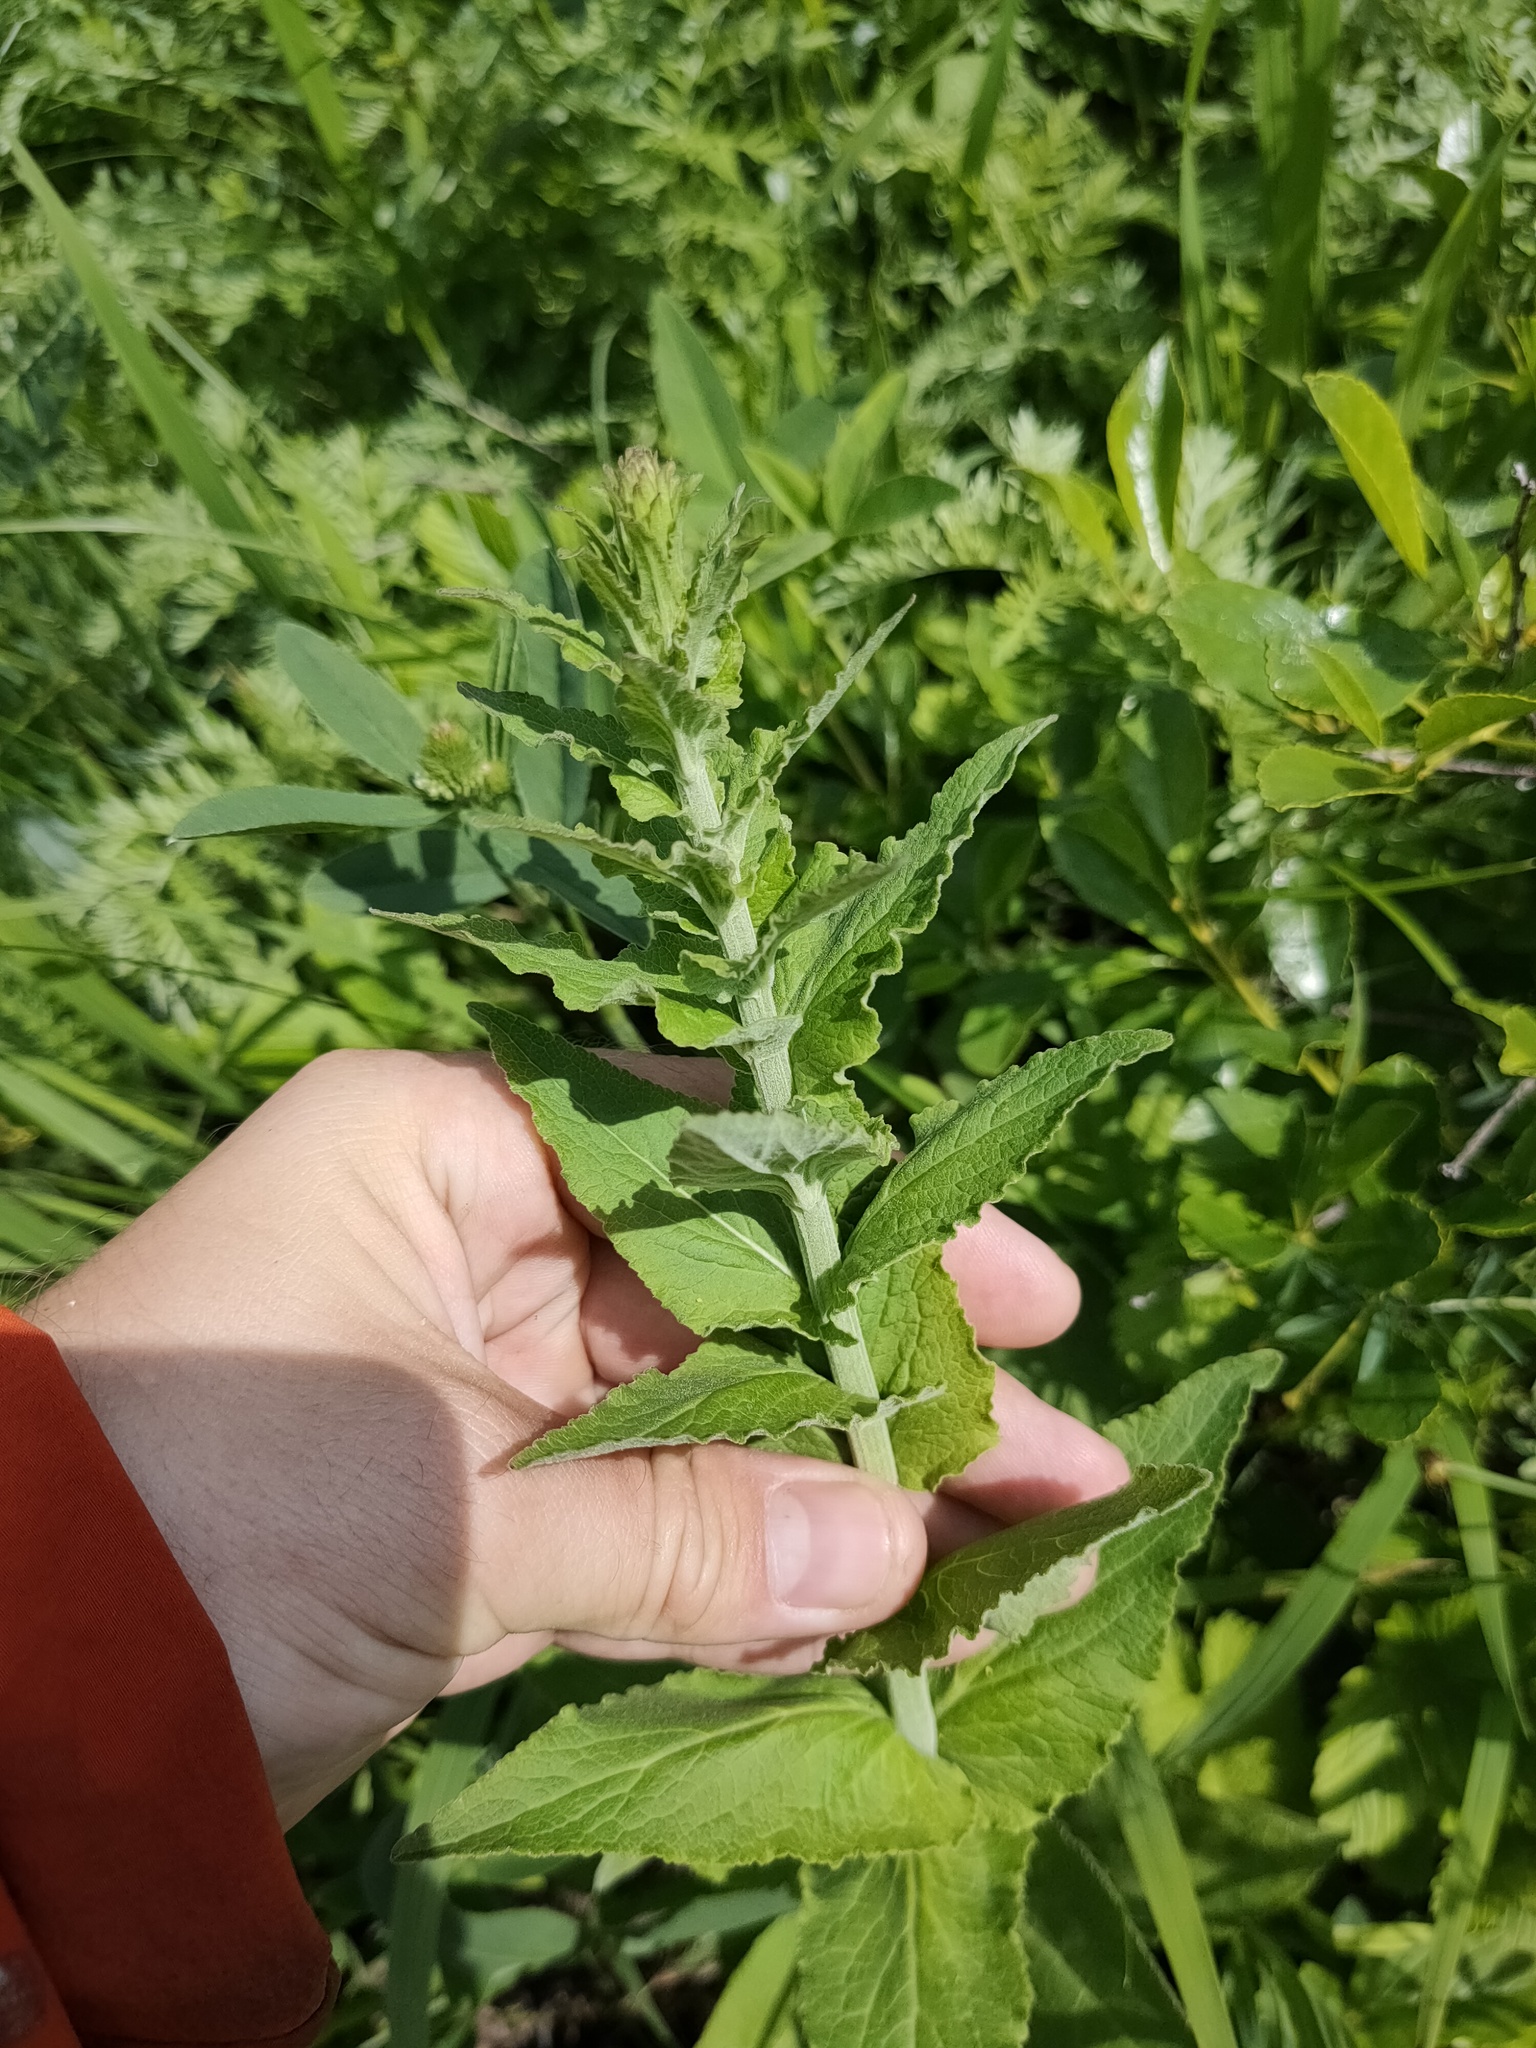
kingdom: Plantae
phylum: Tracheophyta
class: Magnoliopsida
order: Asterales
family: Campanulaceae
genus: Campanula
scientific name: Campanula bononiensis
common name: Pale bellflower
